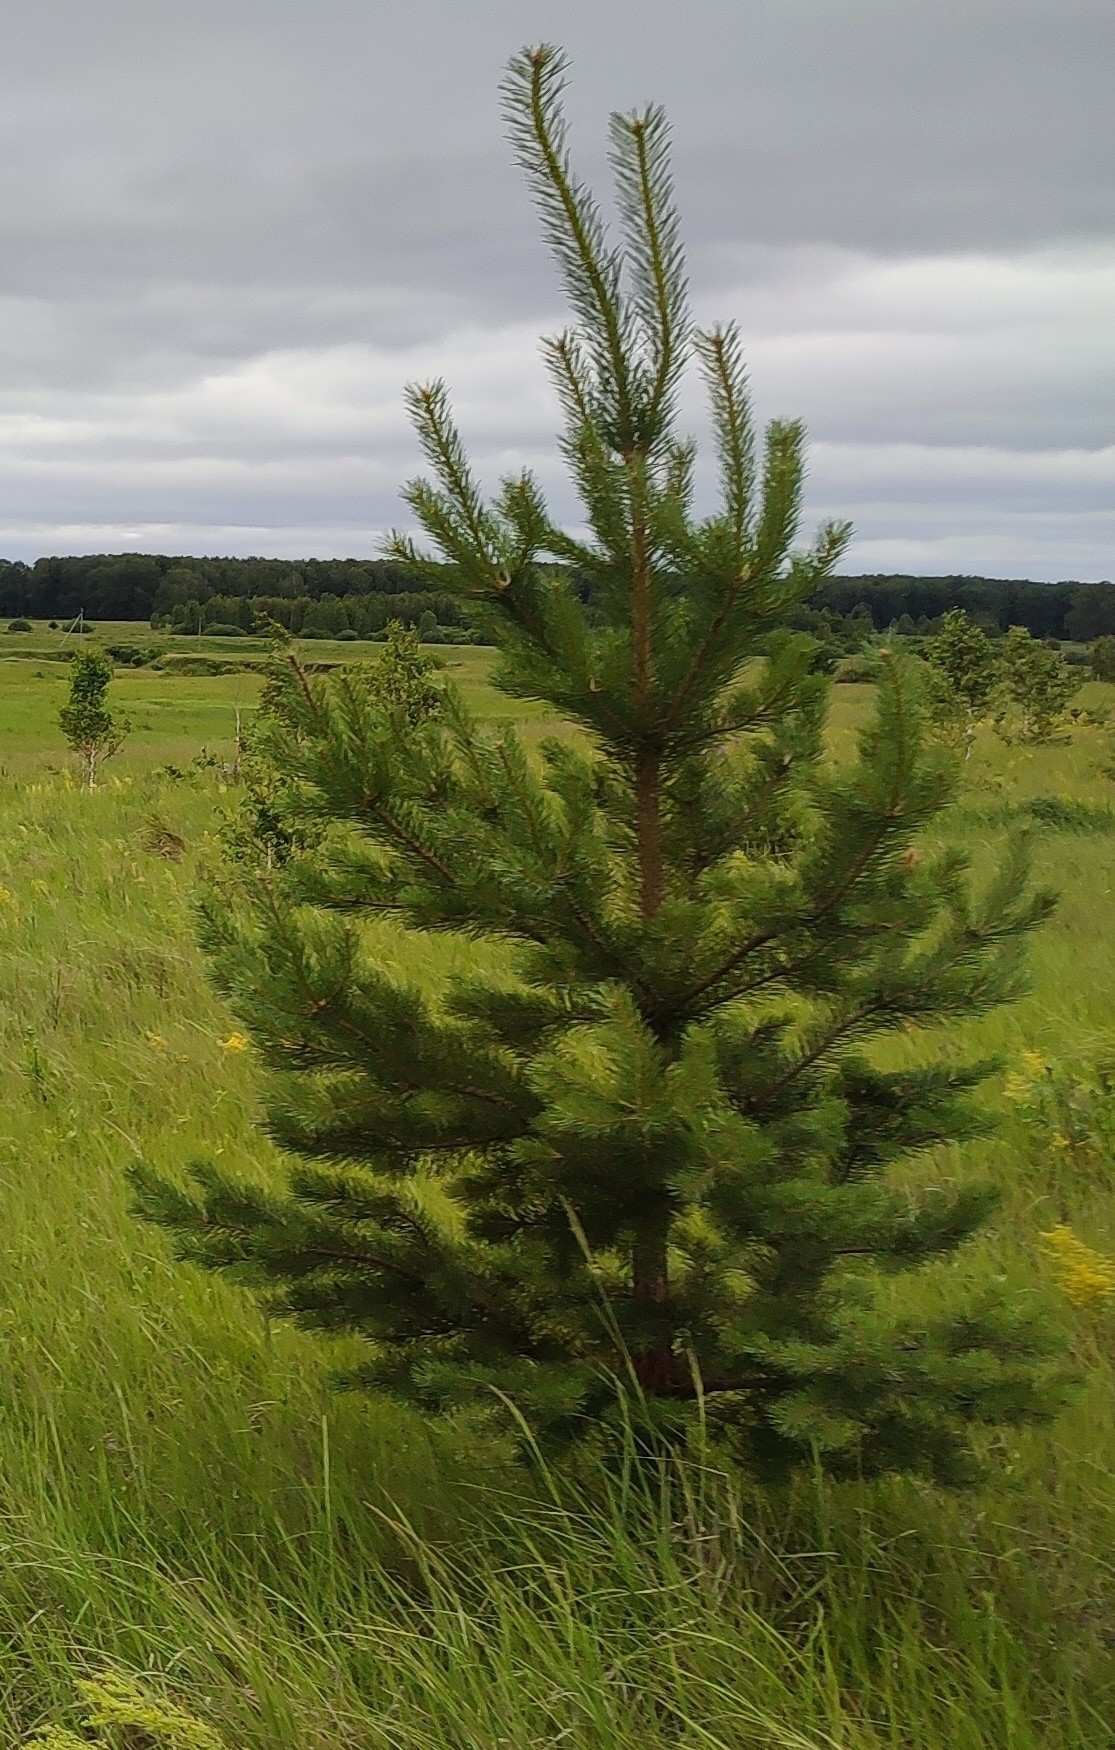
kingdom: Plantae
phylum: Tracheophyta
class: Pinopsida
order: Pinales
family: Pinaceae
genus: Pinus
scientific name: Pinus sylvestris
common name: Scots pine
